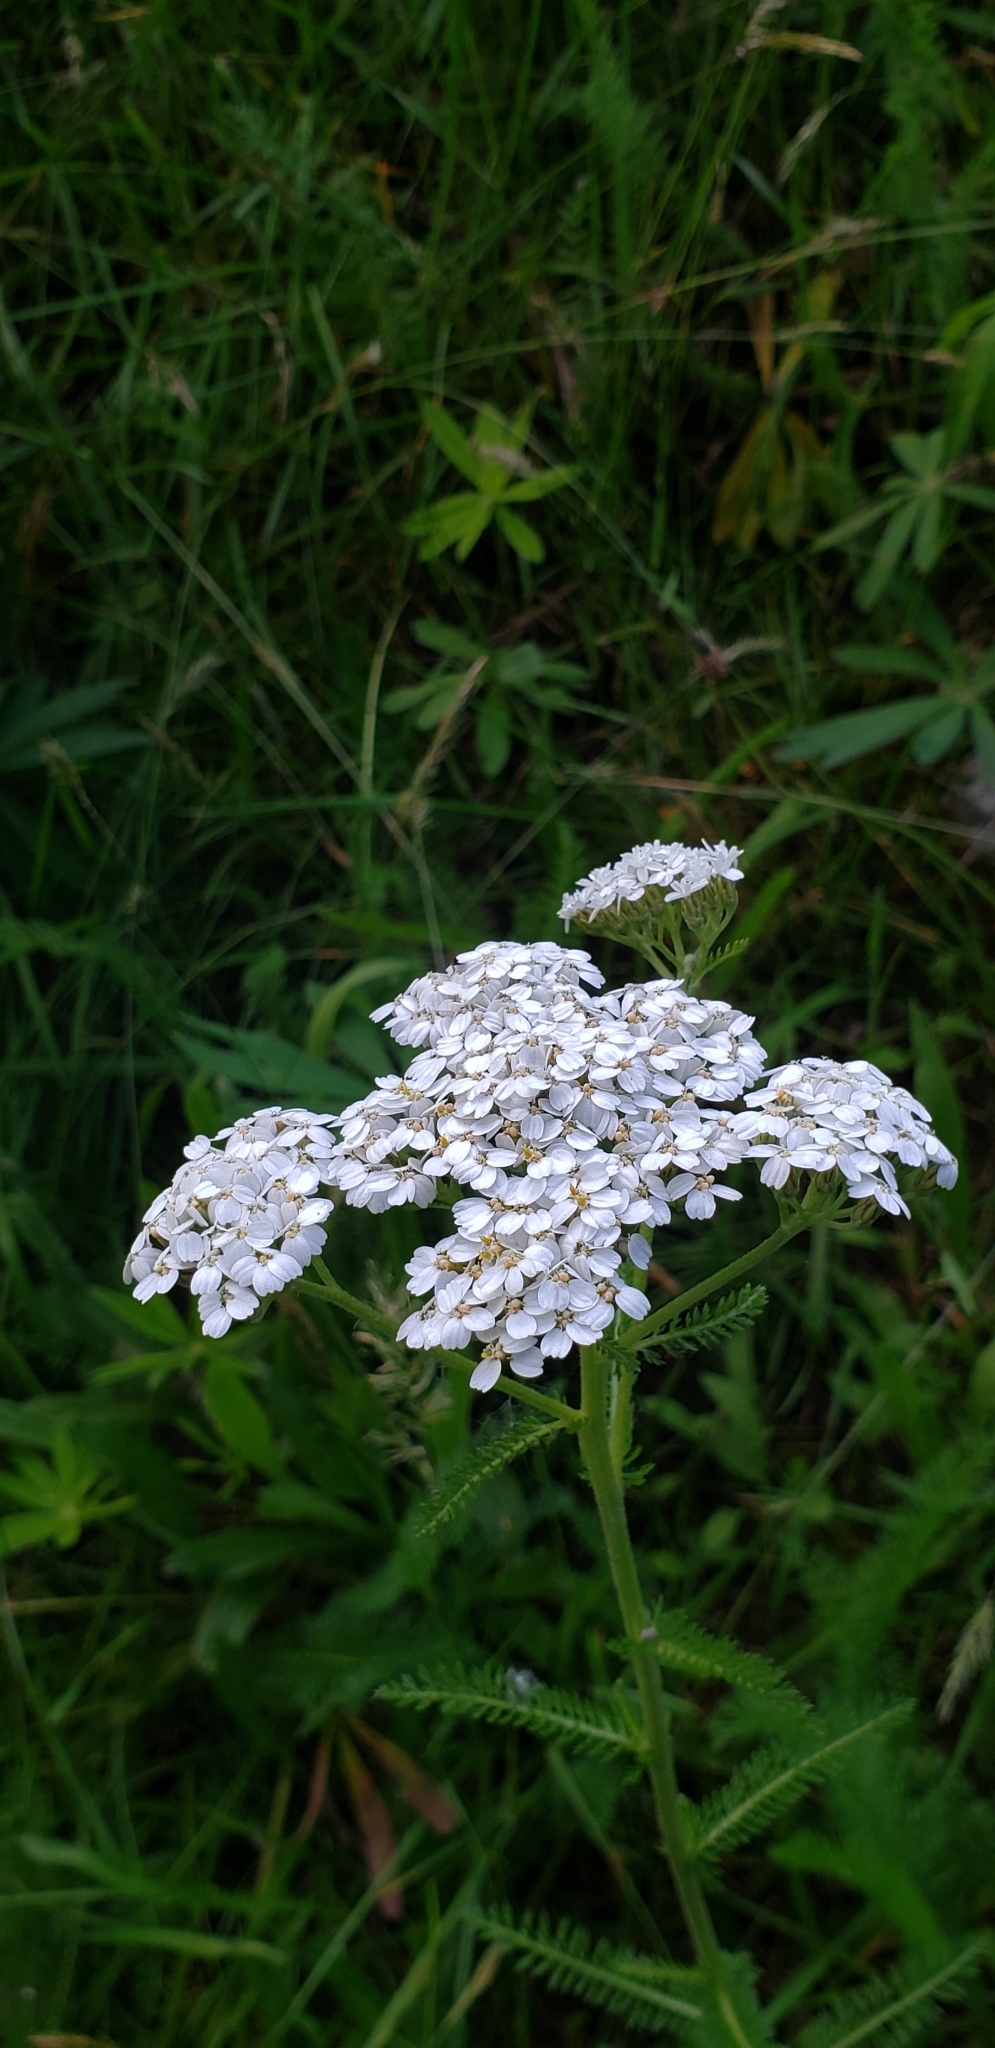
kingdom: Plantae
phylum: Tracheophyta
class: Magnoliopsida
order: Asterales
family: Asteraceae
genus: Achillea
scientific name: Achillea millefolium
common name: Yarrow
